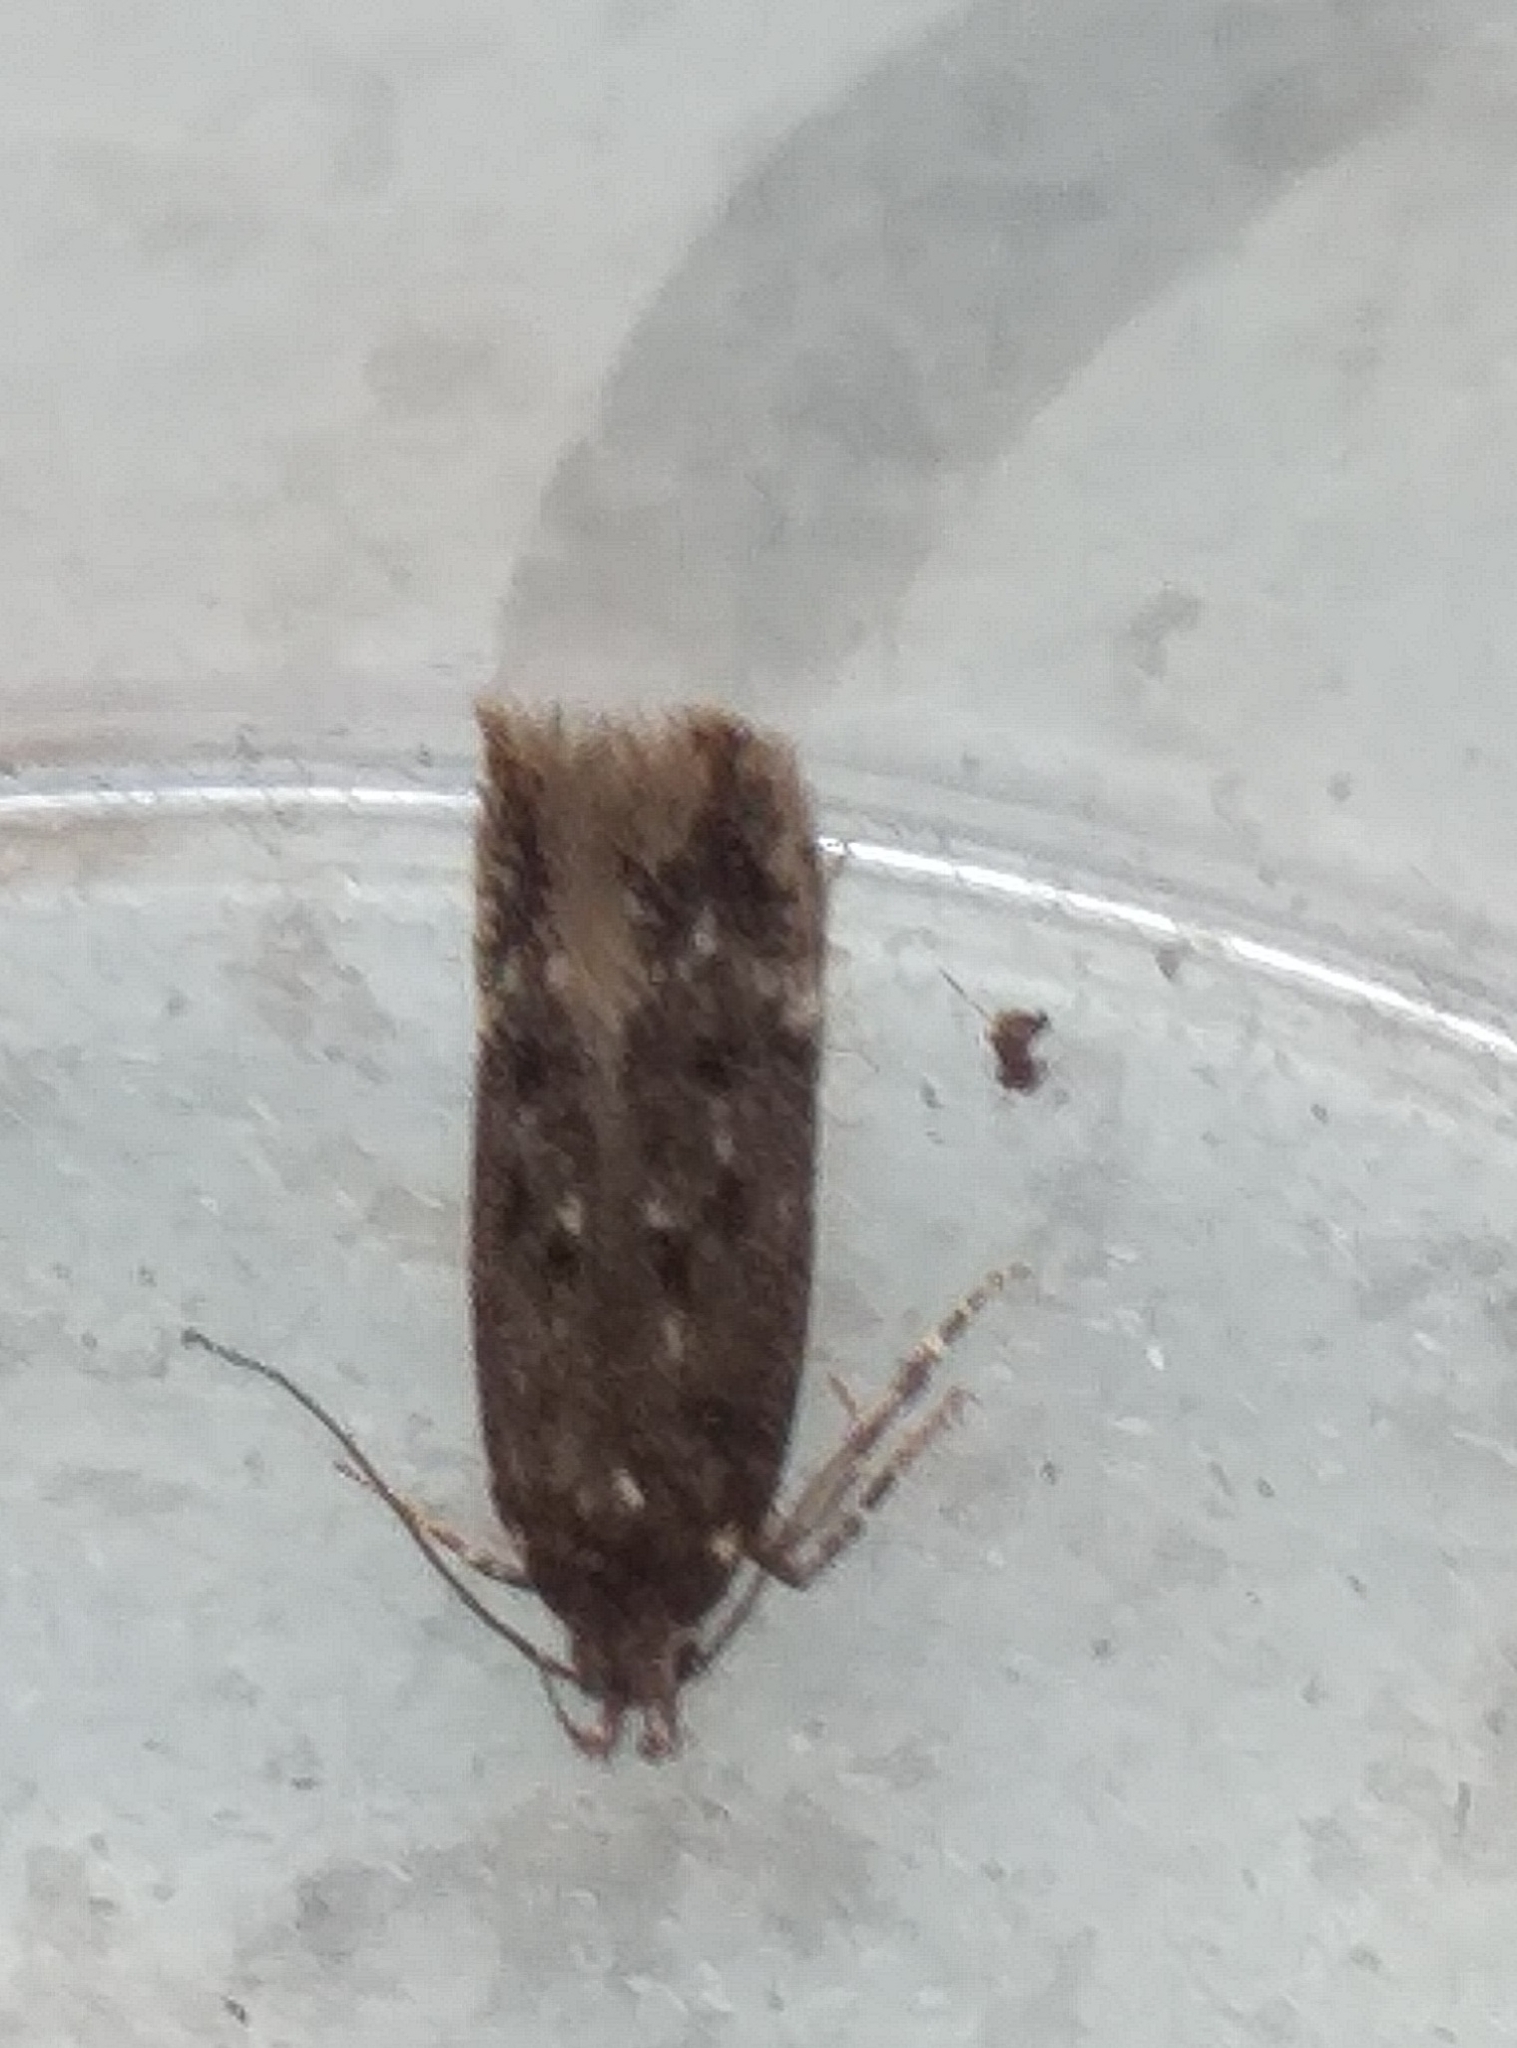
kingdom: Animalia
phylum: Arthropoda
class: Insecta
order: Lepidoptera
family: Gelechiidae
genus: Bryotropha
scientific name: Bryotropha affinis
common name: Dark groundling
